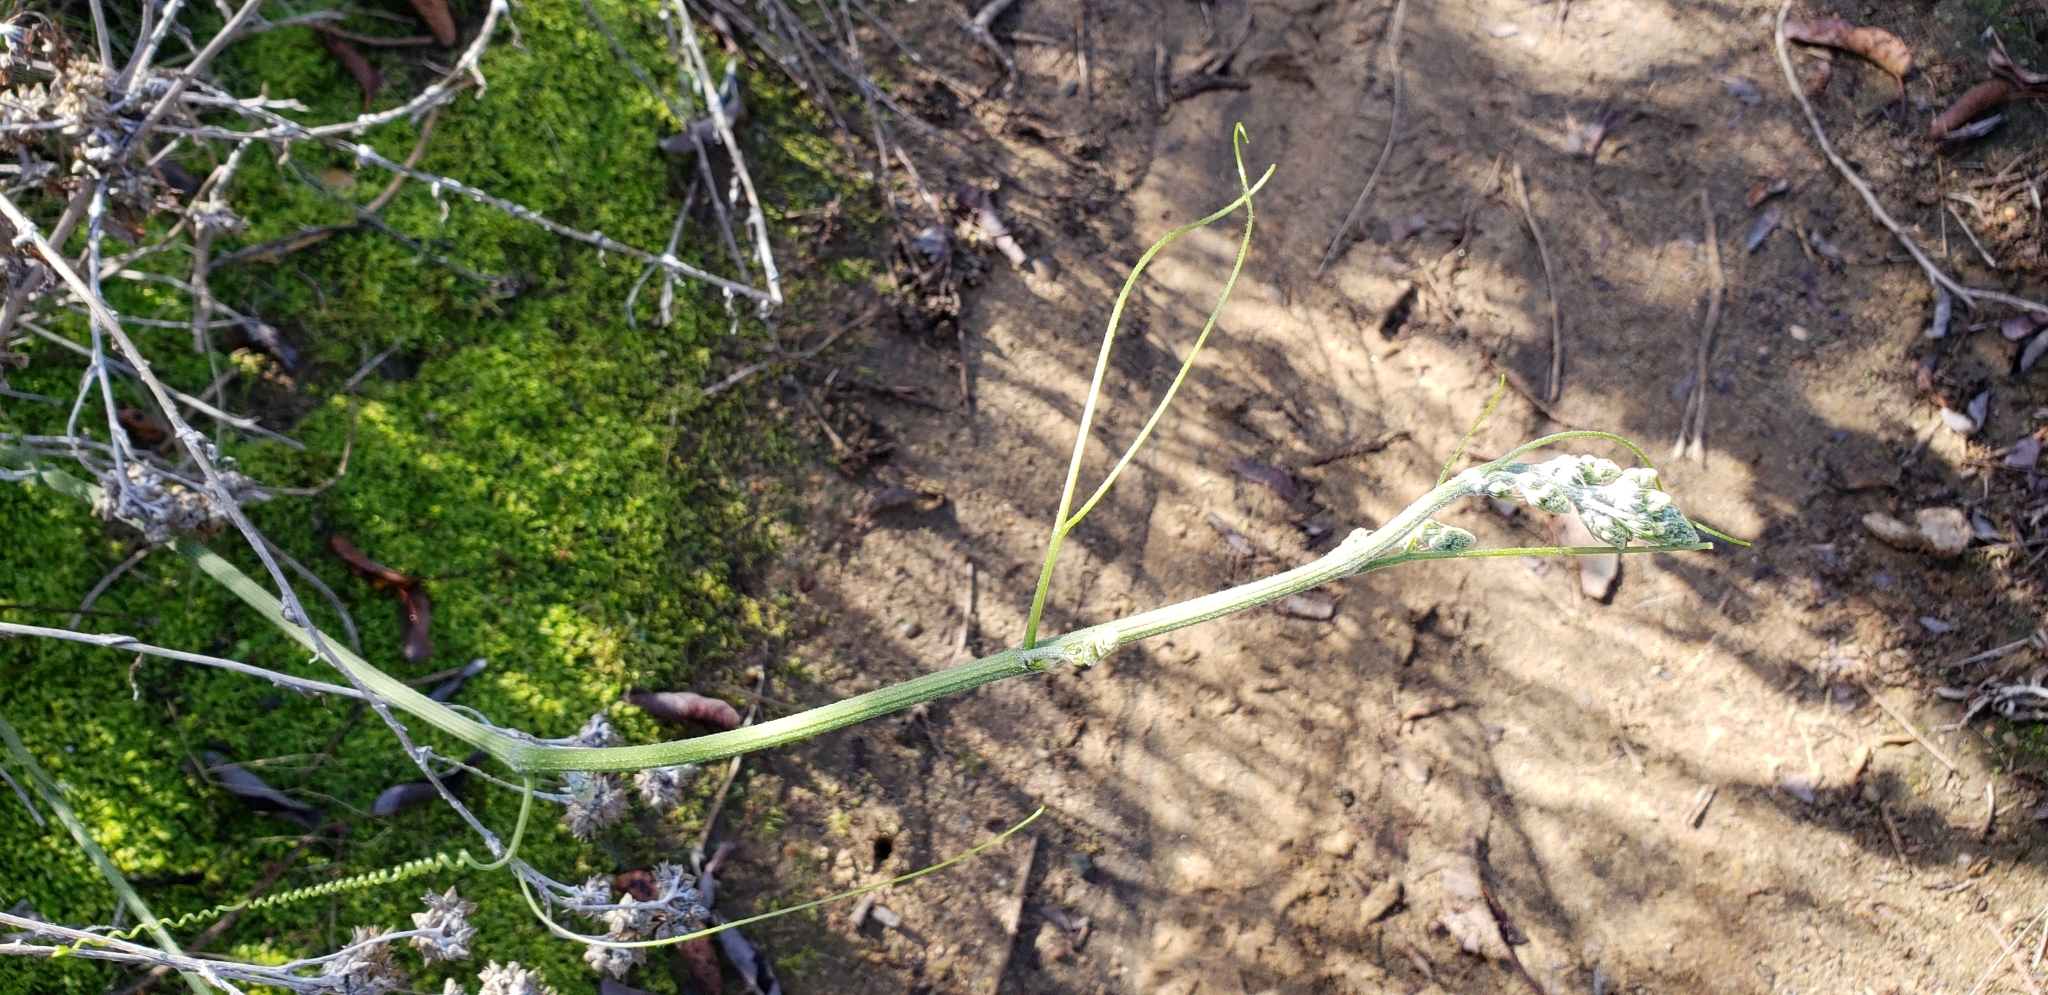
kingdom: Plantae
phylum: Tracheophyta
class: Magnoliopsida
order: Cucurbitales
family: Cucurbitaceae
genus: Marah
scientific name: Marah macrocarpa
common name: Cucamonga manroot
